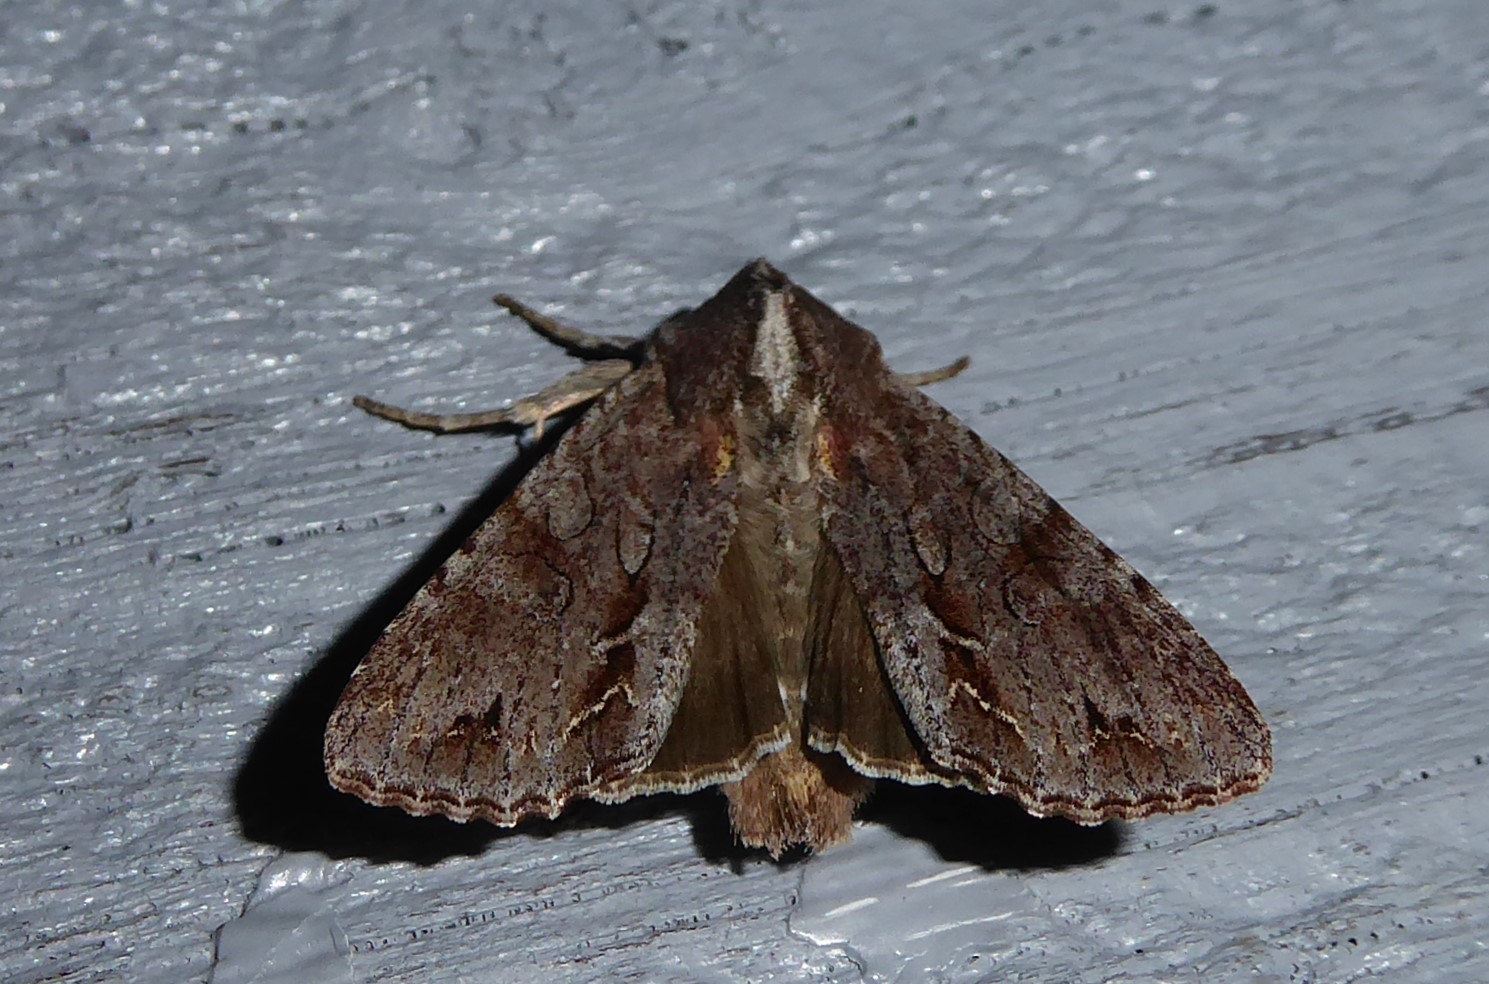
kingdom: Animalia
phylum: Arthropoda
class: Insecta
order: Lepidoptera
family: Noctuidae
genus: Ichneutica
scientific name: Ichneutica
